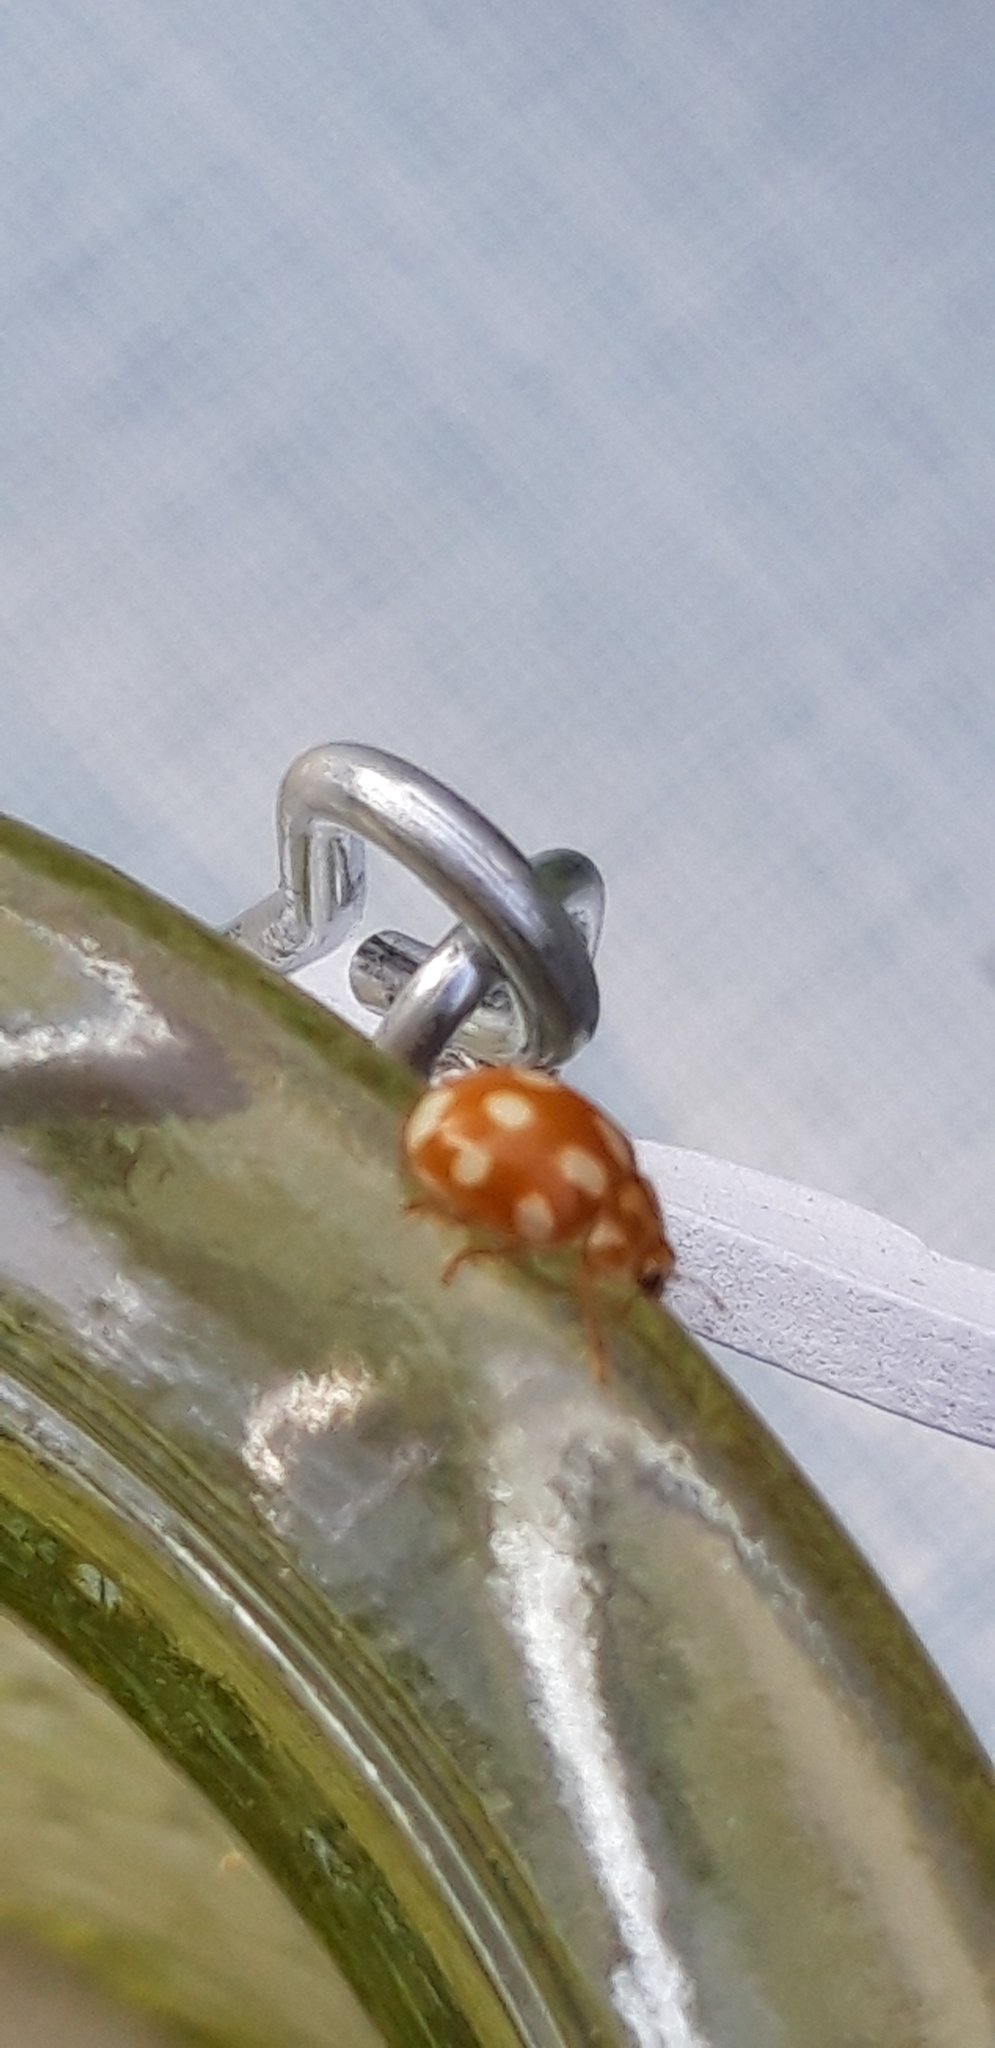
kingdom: Animalia
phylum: Arthropoda
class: Insecta
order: Coleoptera
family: Coccinellidae
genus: Calvia
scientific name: Calvia decemguttata
